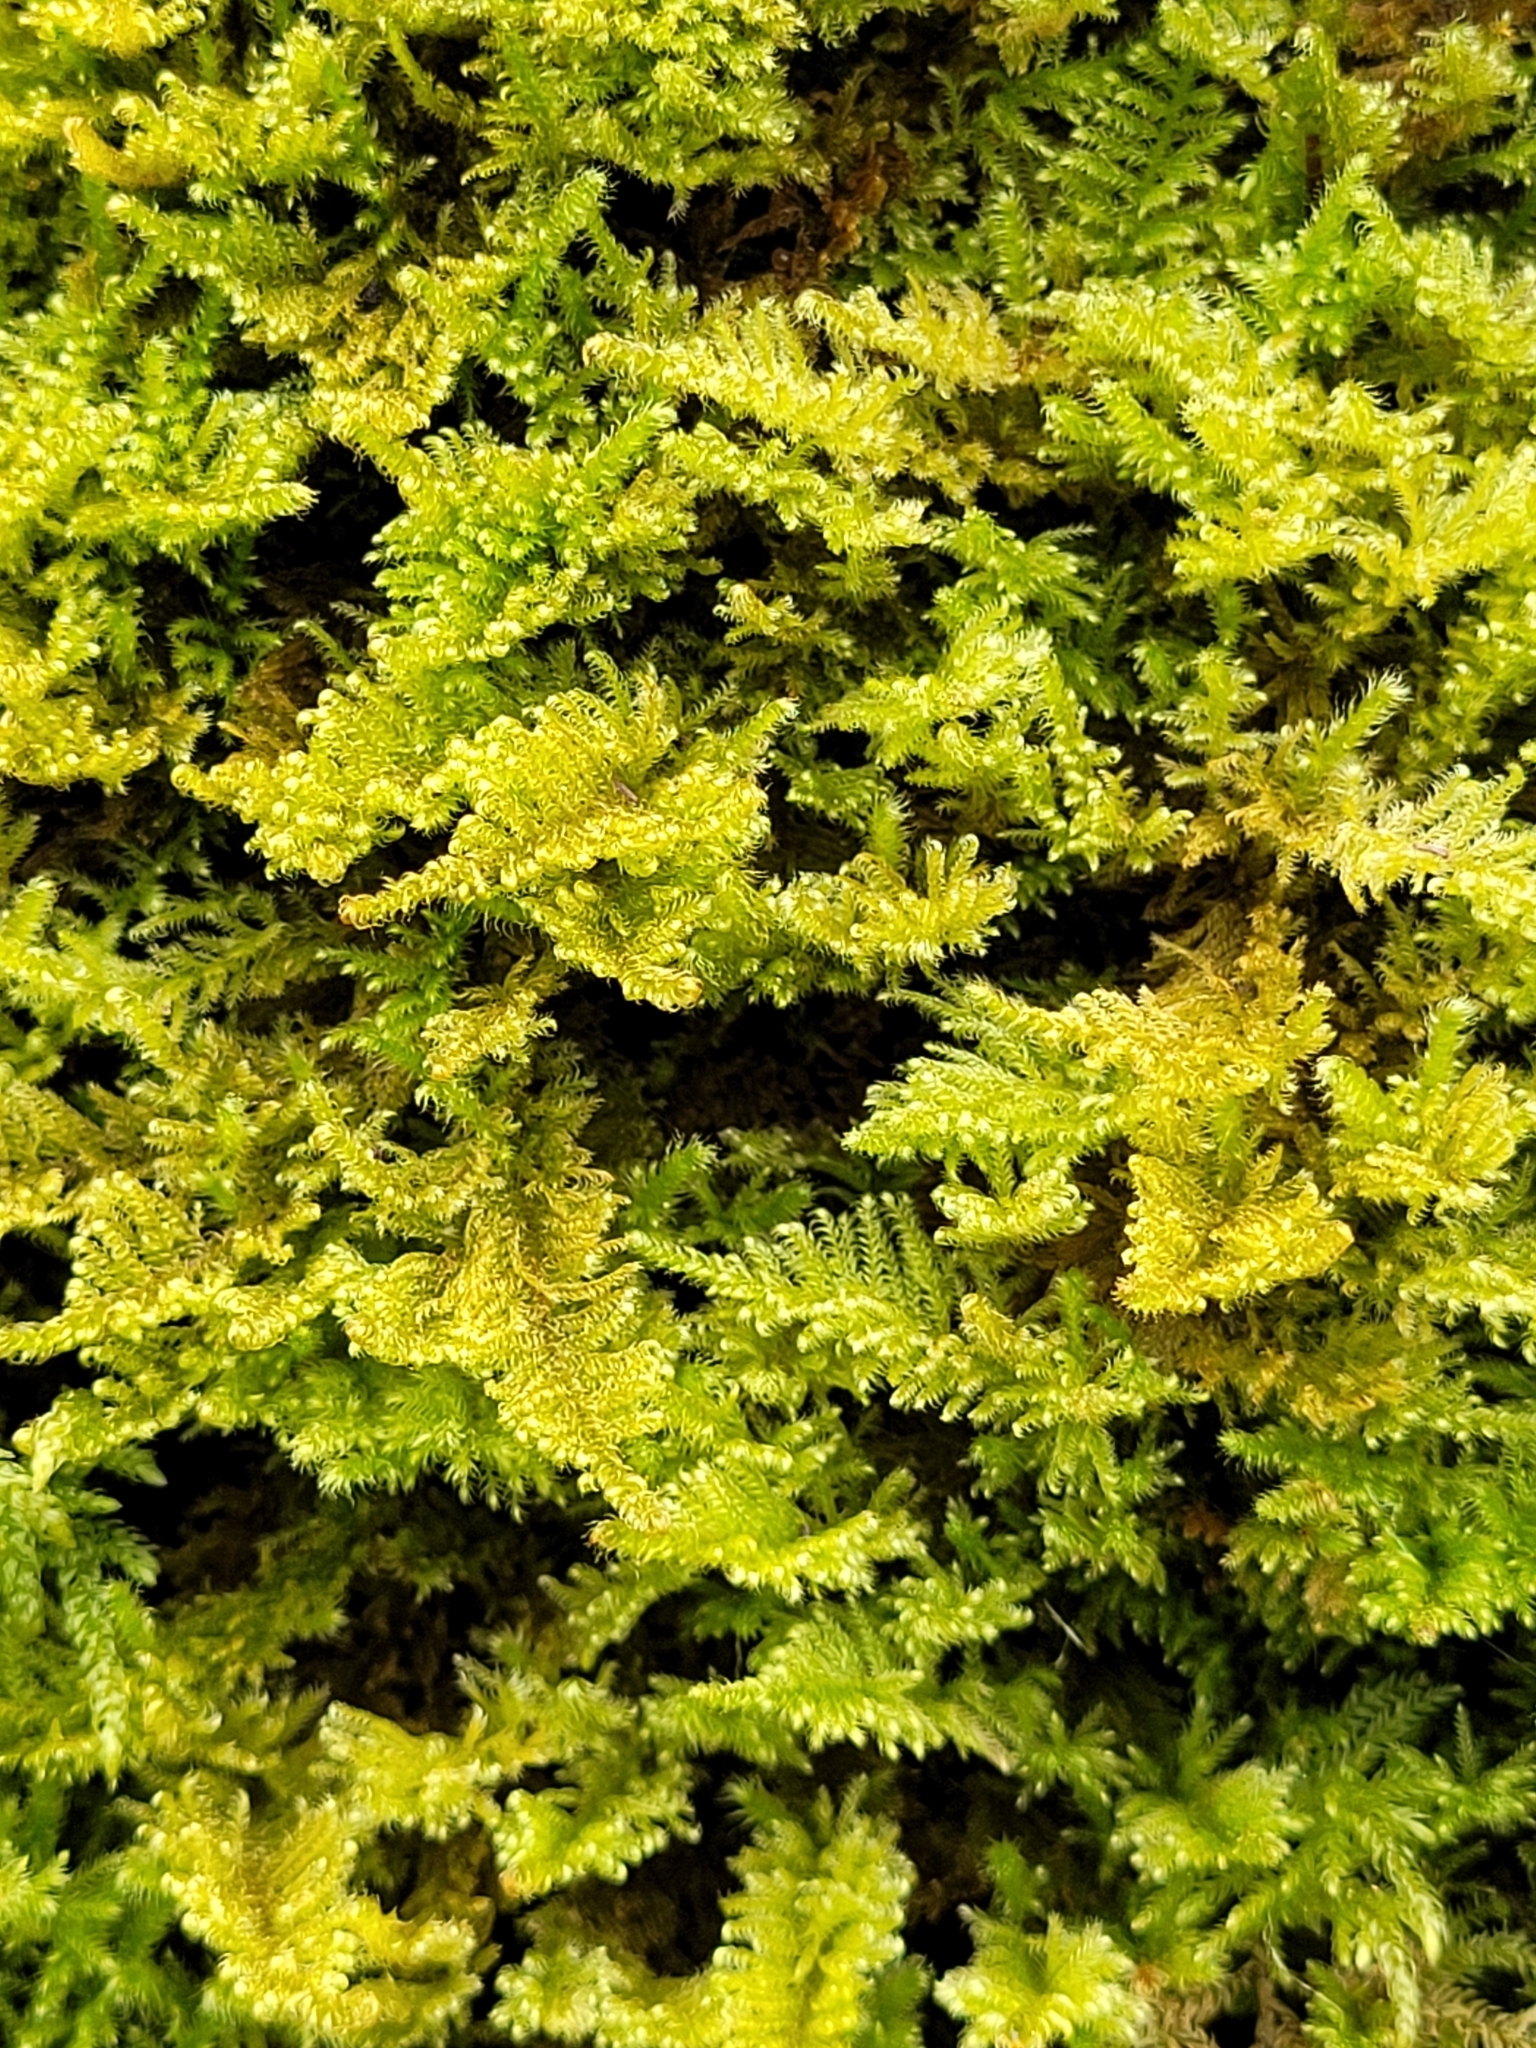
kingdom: Plantae
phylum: Bryophyta
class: Bryopsida
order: Hypnales
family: Myuriaceae
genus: Ctenidium
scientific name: Ctenidium molluscum
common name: Chalk comb-moss
